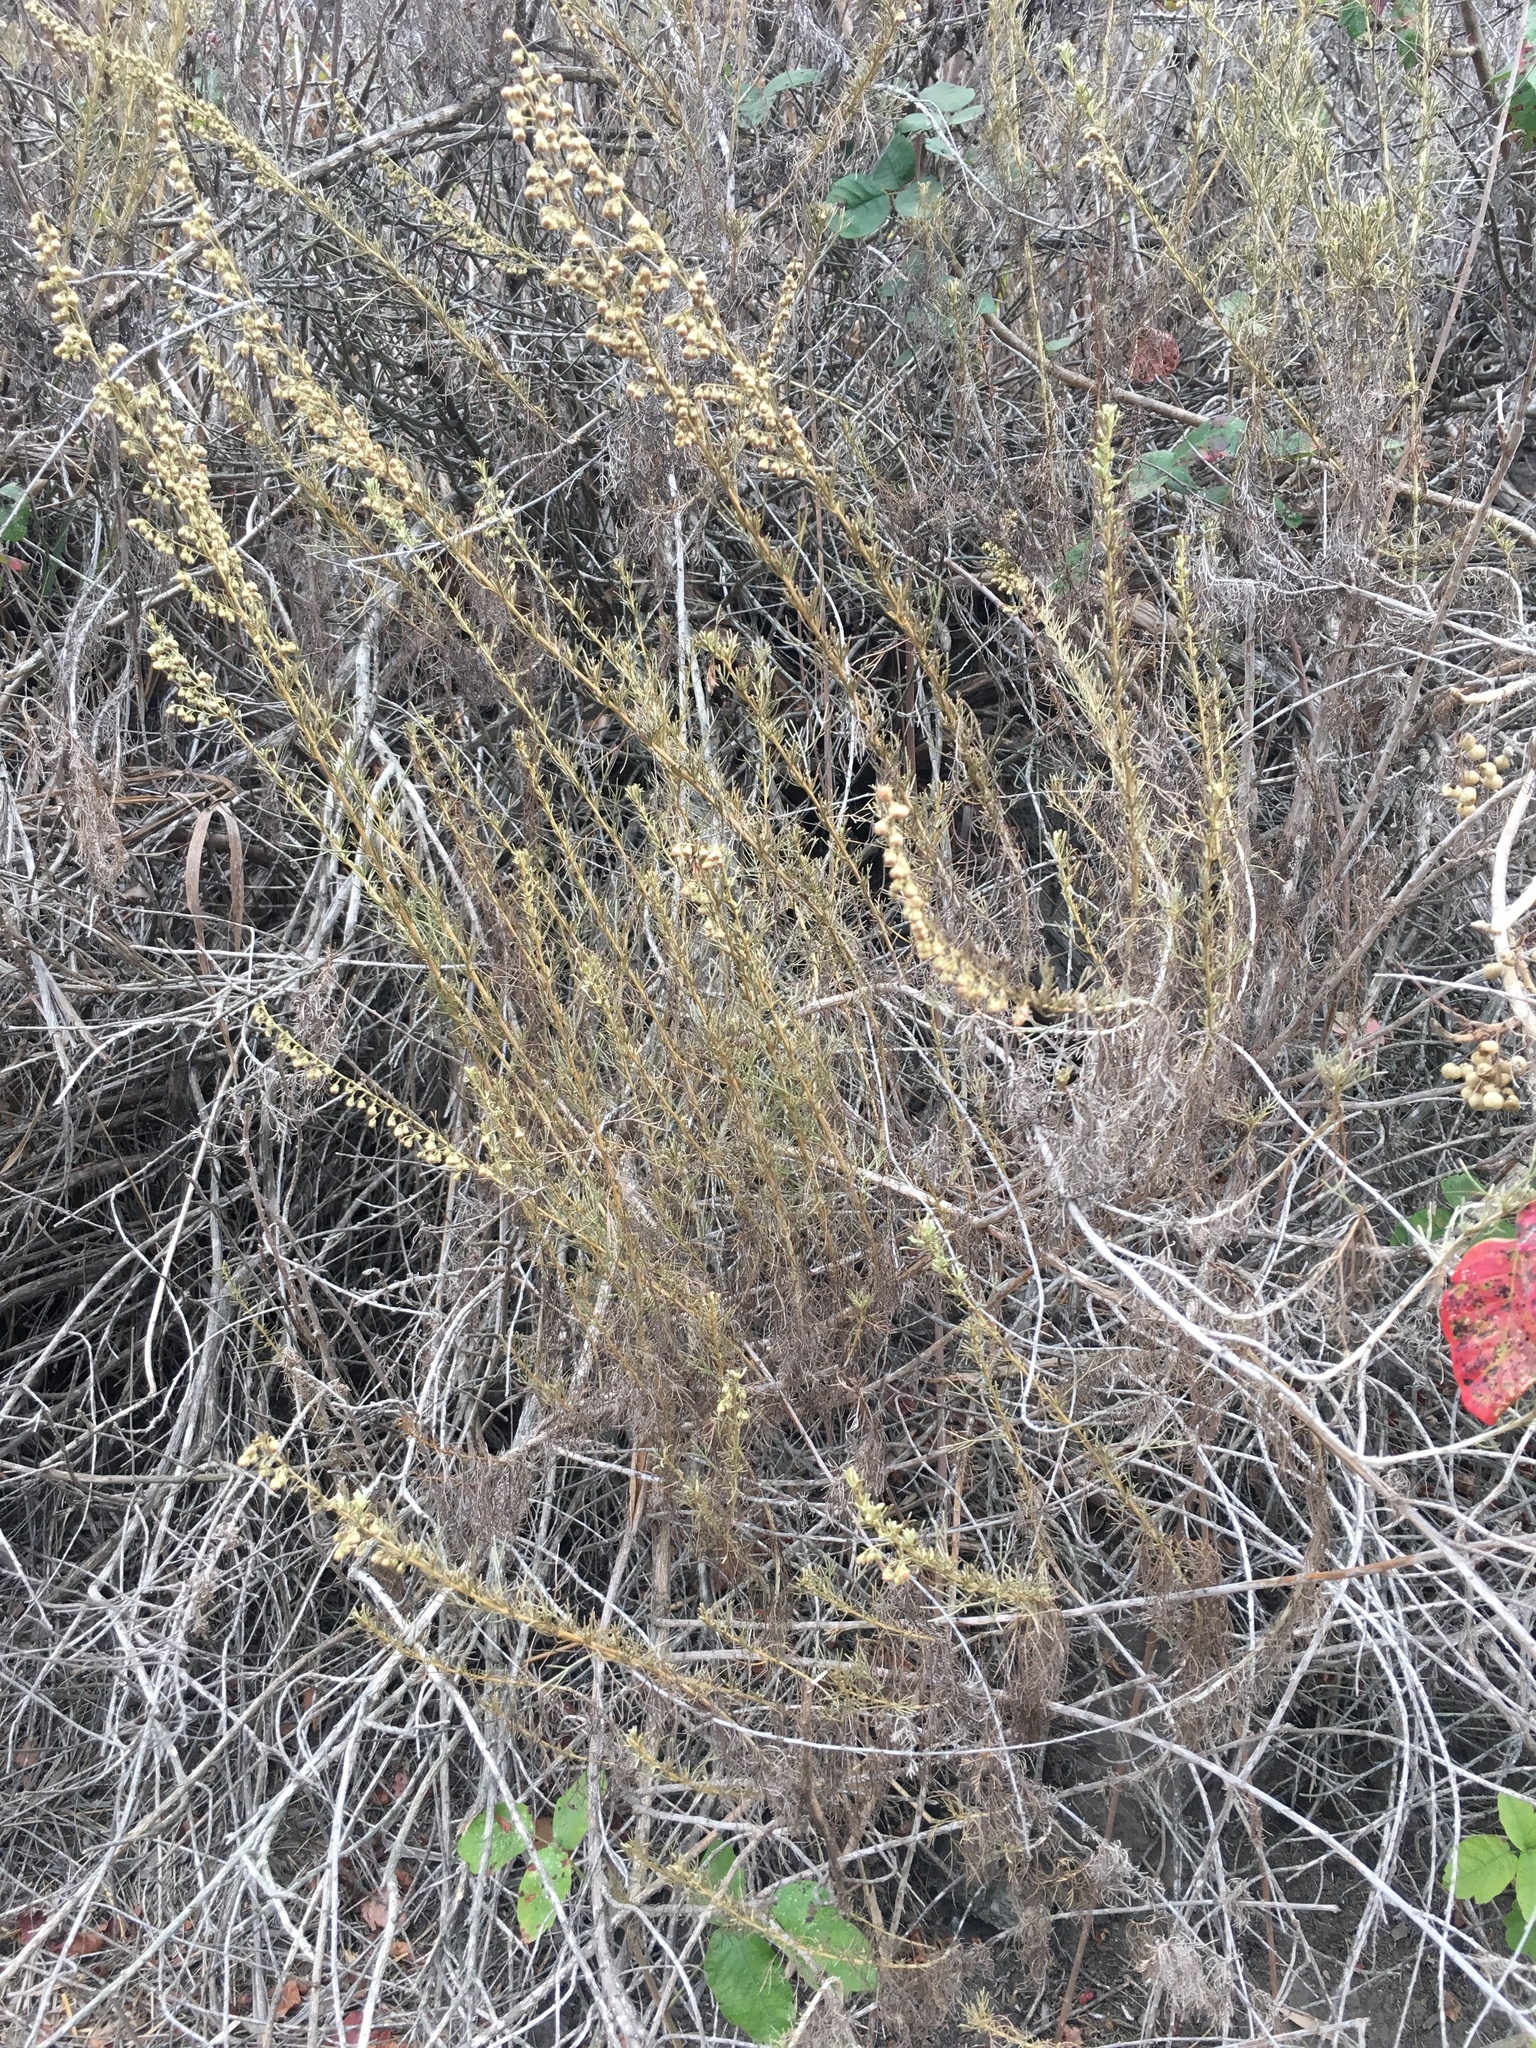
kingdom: Plantae
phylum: Tracheophyta
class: Magnoliopsida
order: Asterales
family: Asteraceae
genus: Artemisia
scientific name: Artemisia californica
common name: California sagebrush
